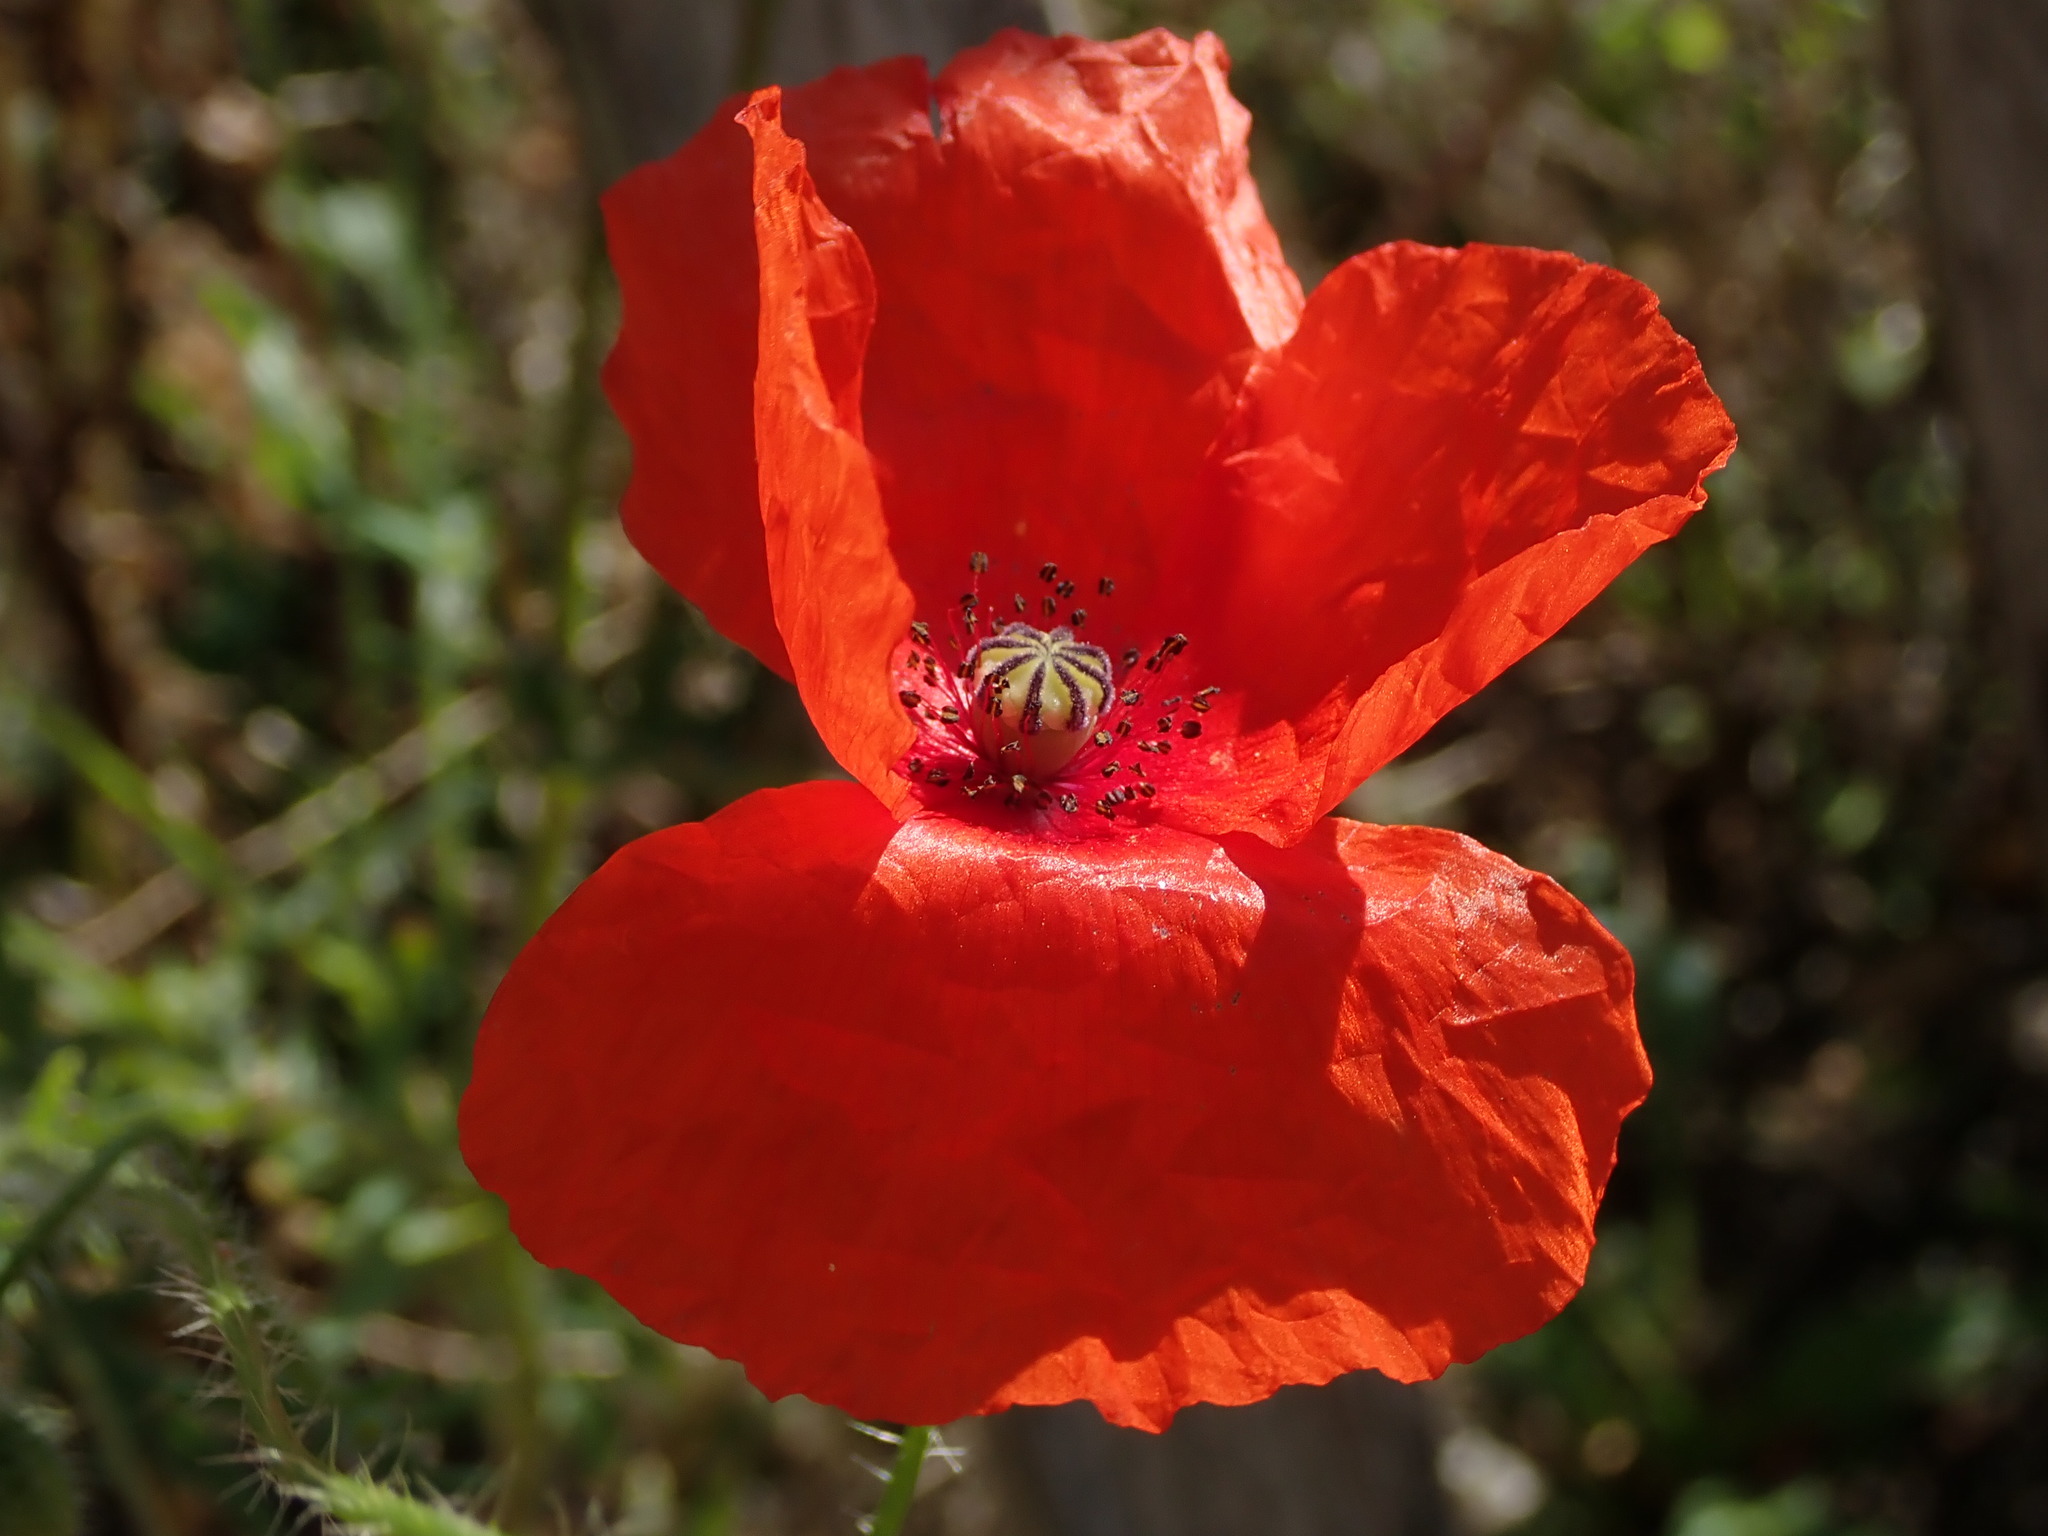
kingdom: Plantae
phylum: Tracheophyta
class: Magnoliopsida
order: Ranunculales
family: Papaveraceae
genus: Papaver
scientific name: Papaver rhoeas
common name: Corn poppy
